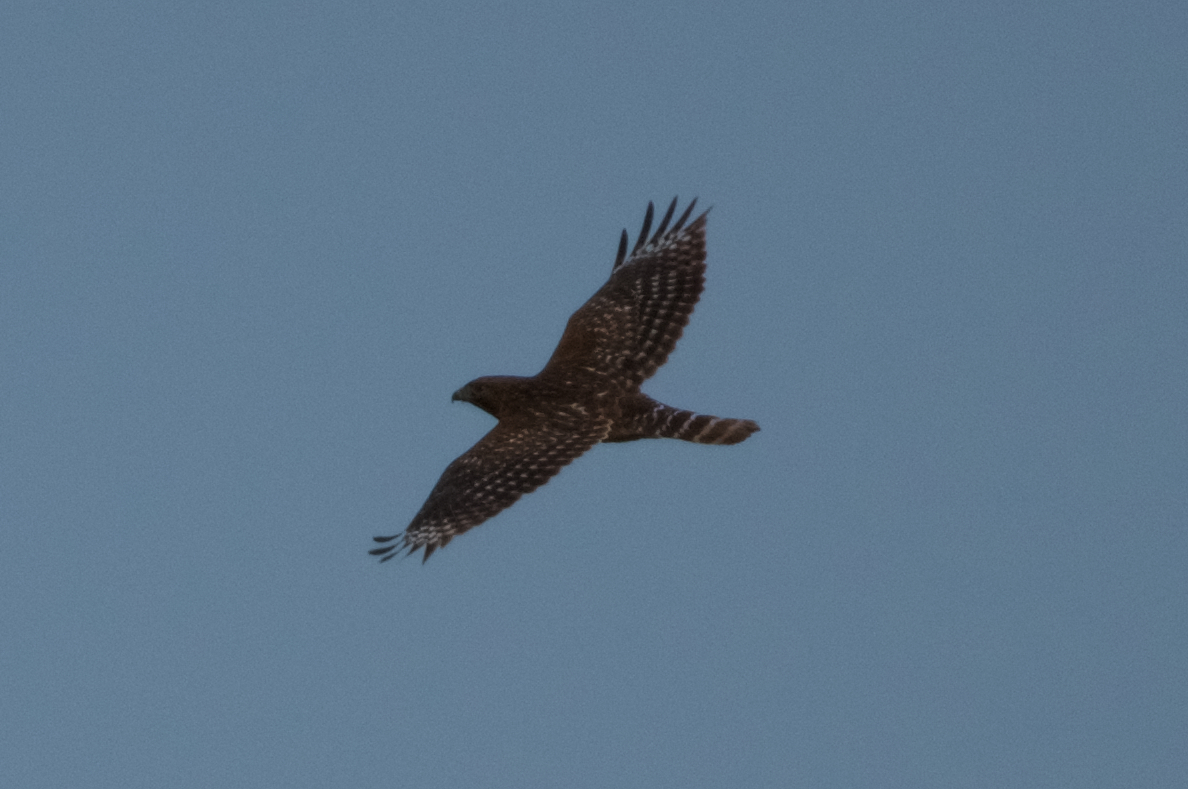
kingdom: Animalia
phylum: Chordata
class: Aves
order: Accipitriformes
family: Accipitridae
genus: Buteo
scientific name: Buteo lineatus
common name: Red-shouldered hawk
